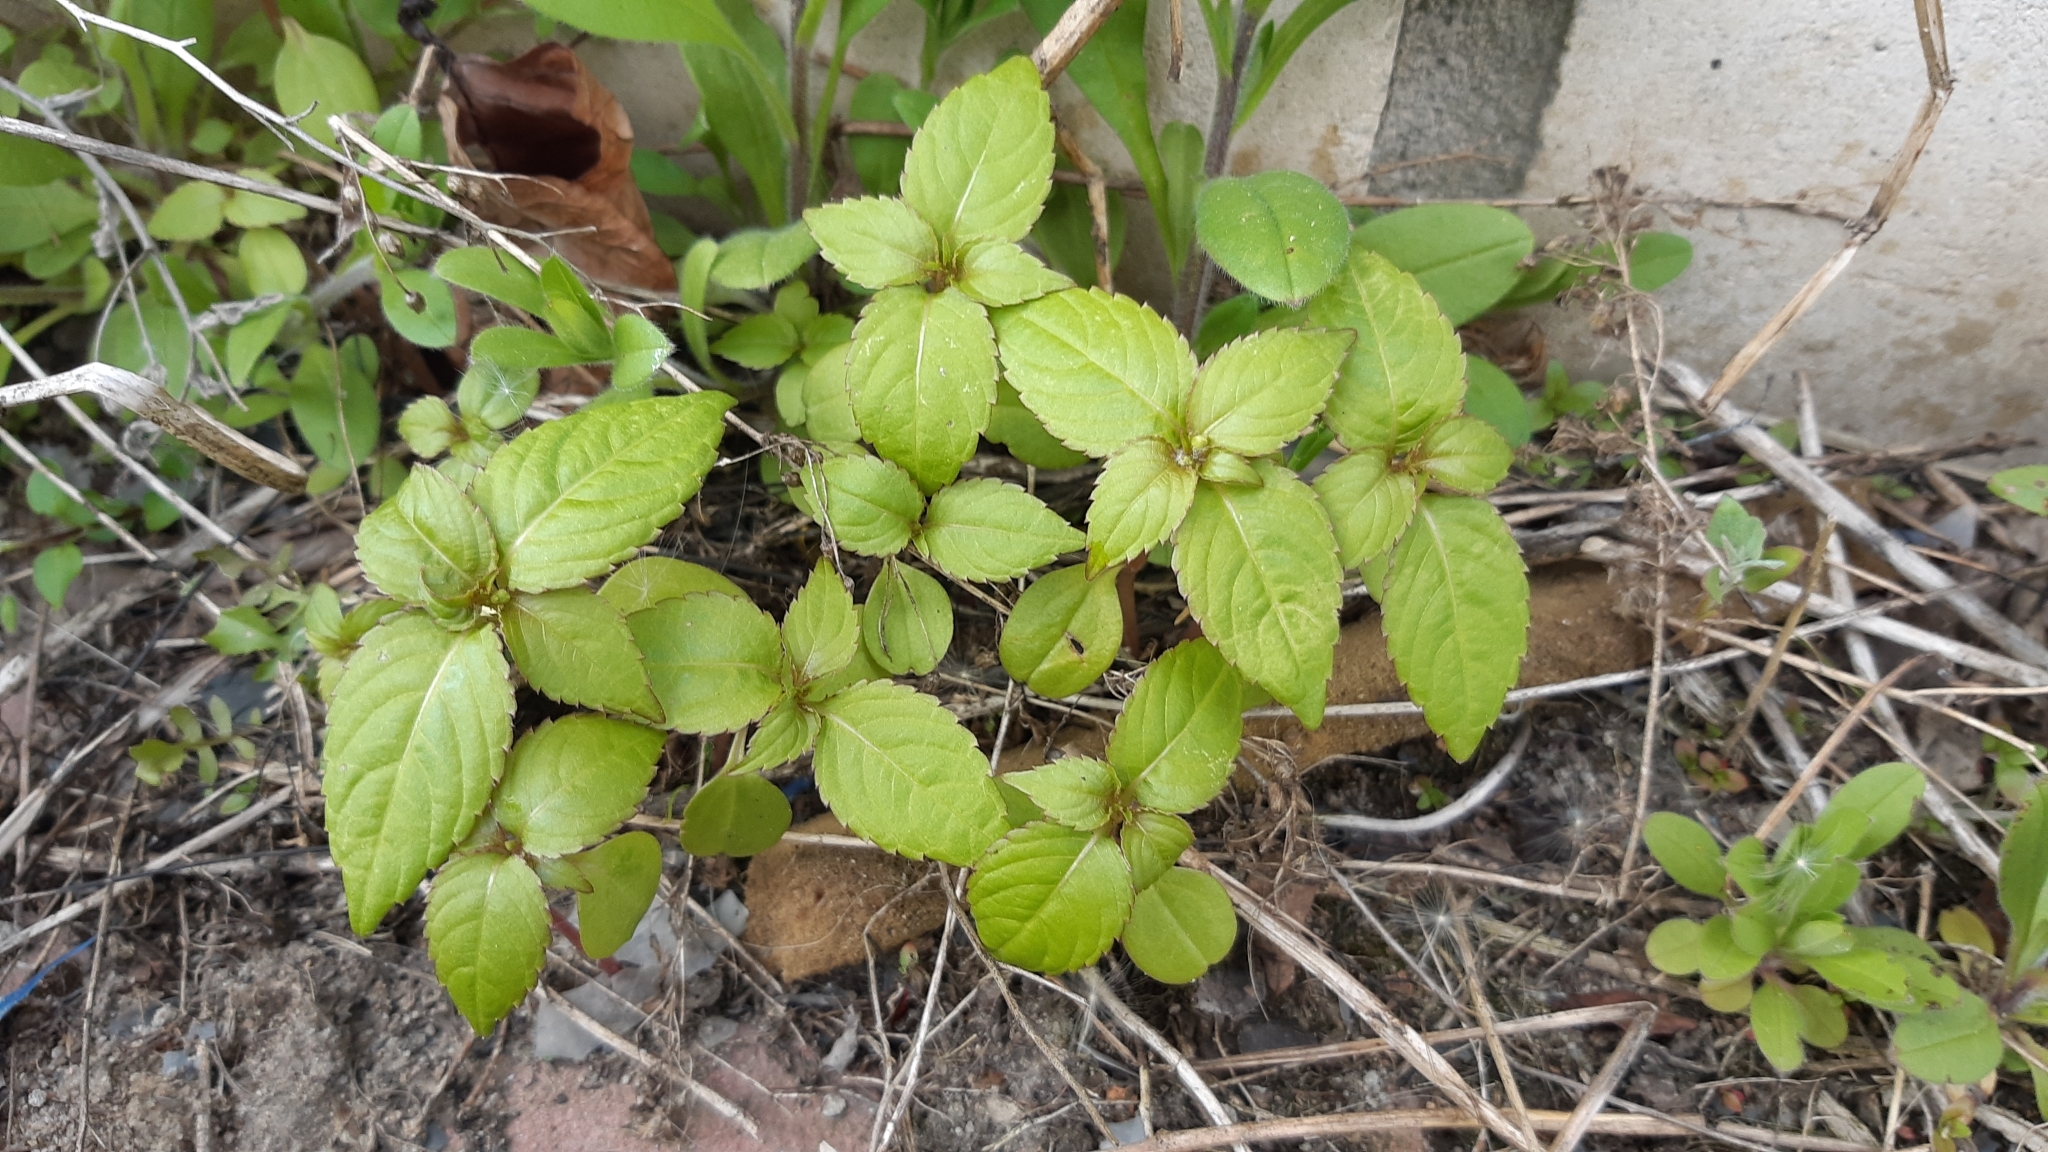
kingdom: Plantae
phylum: Tracheophyta
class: Magnoliopsida
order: Ericales
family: Balsaminaceae
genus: Impatiens
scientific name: Impatiens parviflora
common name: Small balsam
